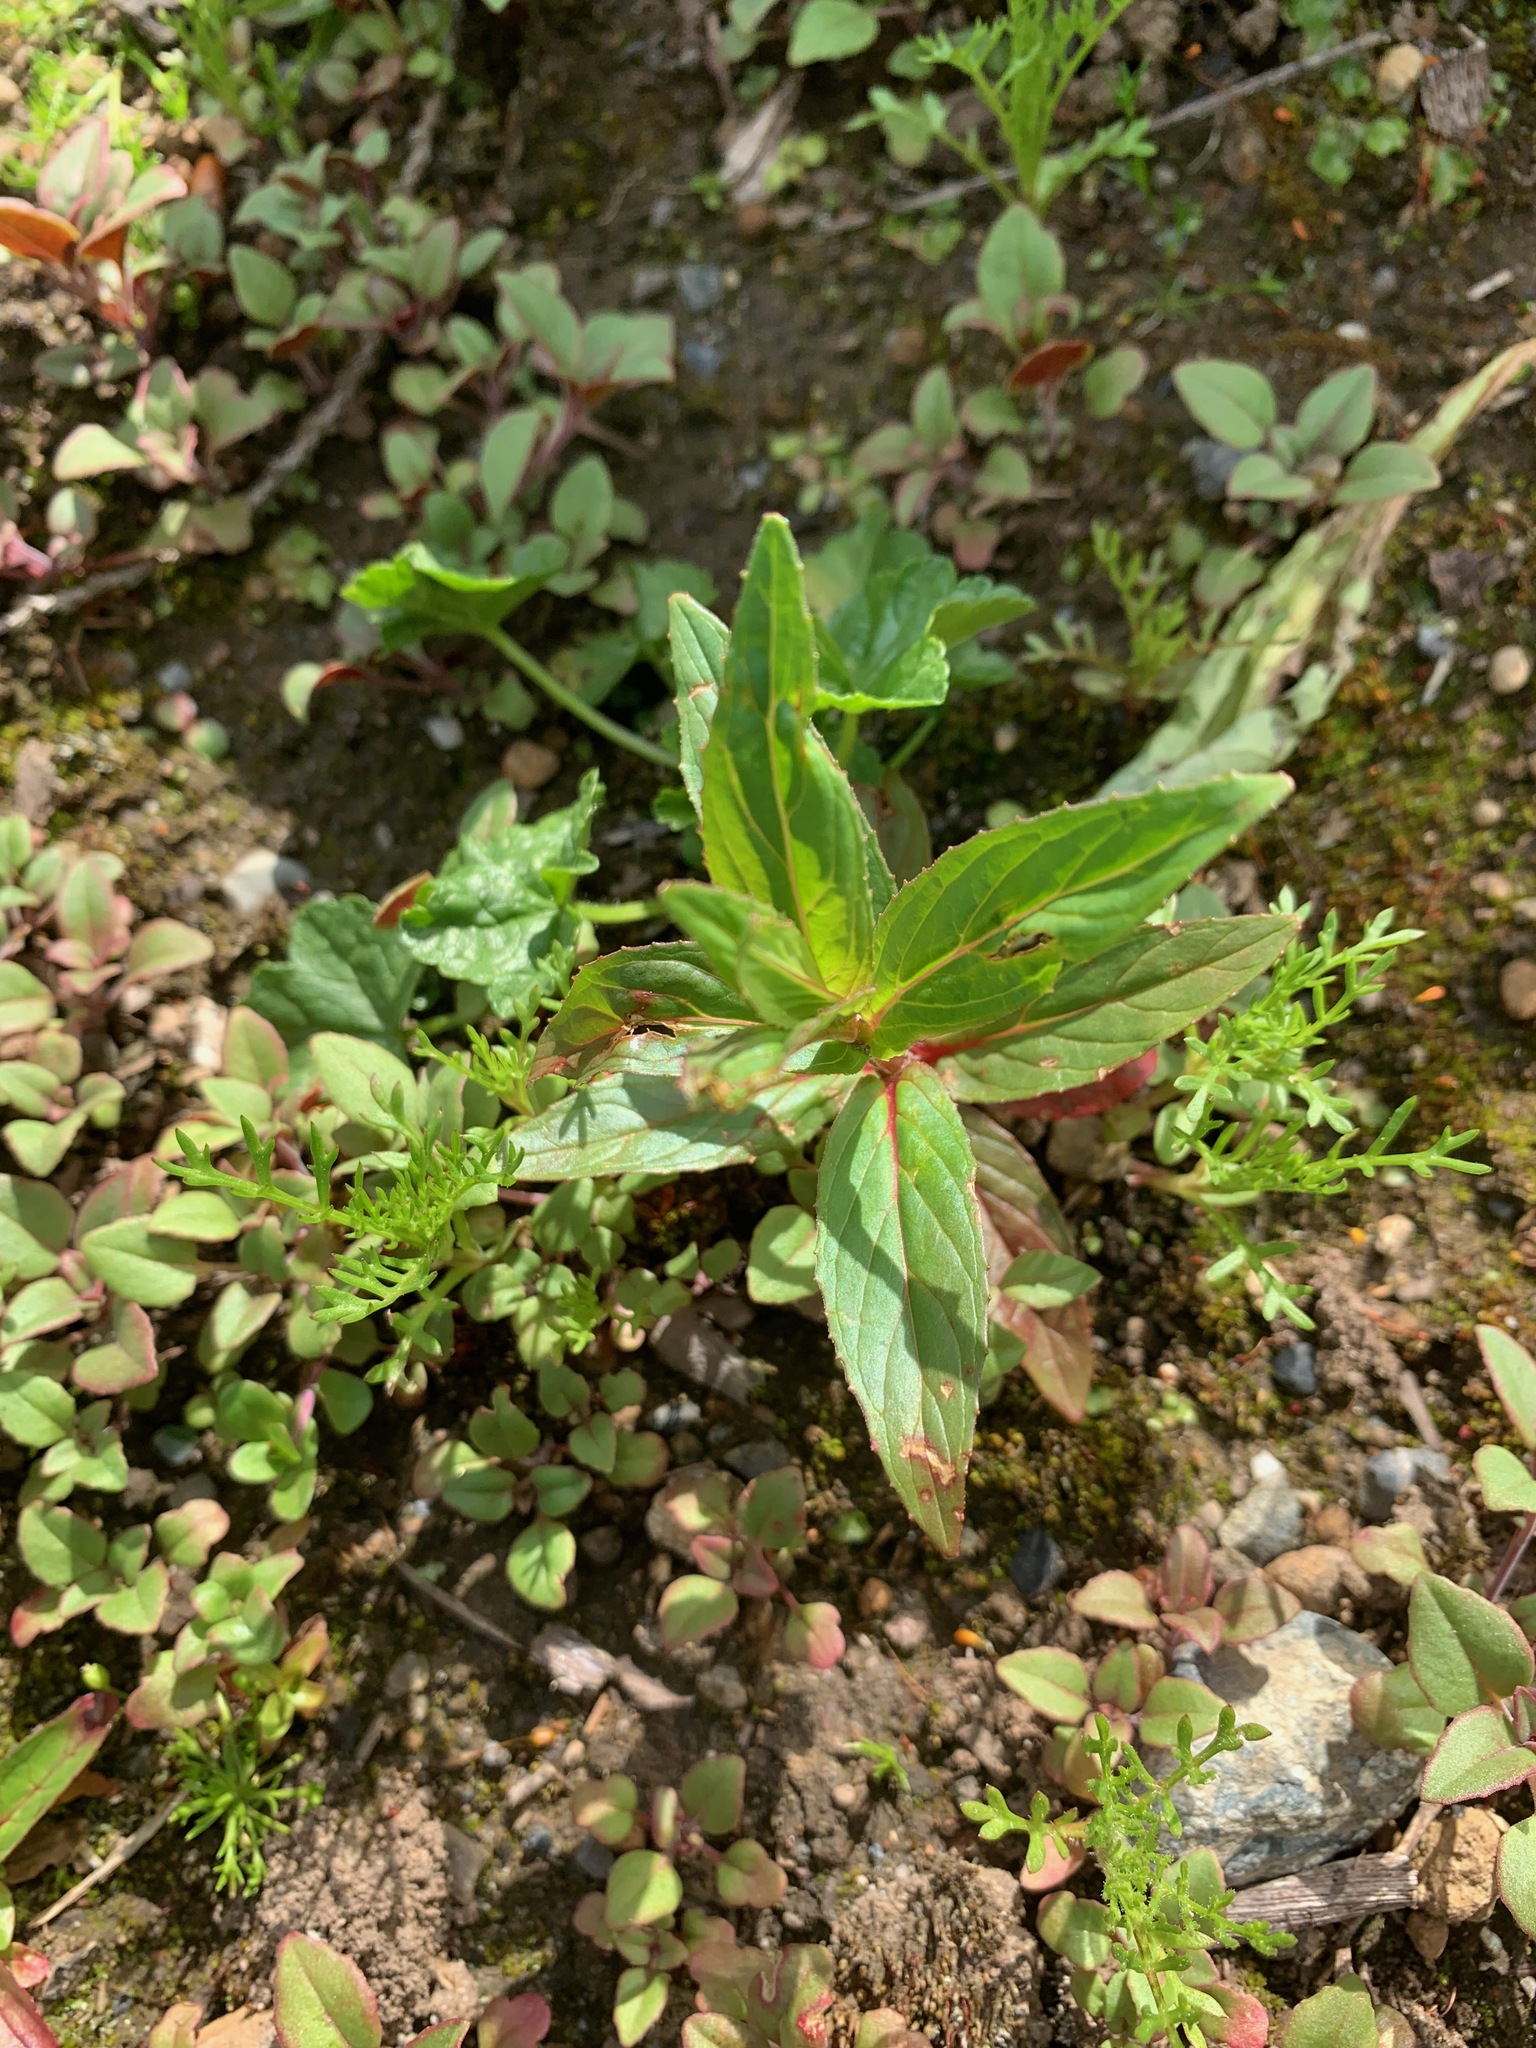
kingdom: Plantae
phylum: Tracheophyta
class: Magnoliopsida
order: Myrtales
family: Onagraceae
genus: Epilobium
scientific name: Epilobium ciliatum
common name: American willowherb
